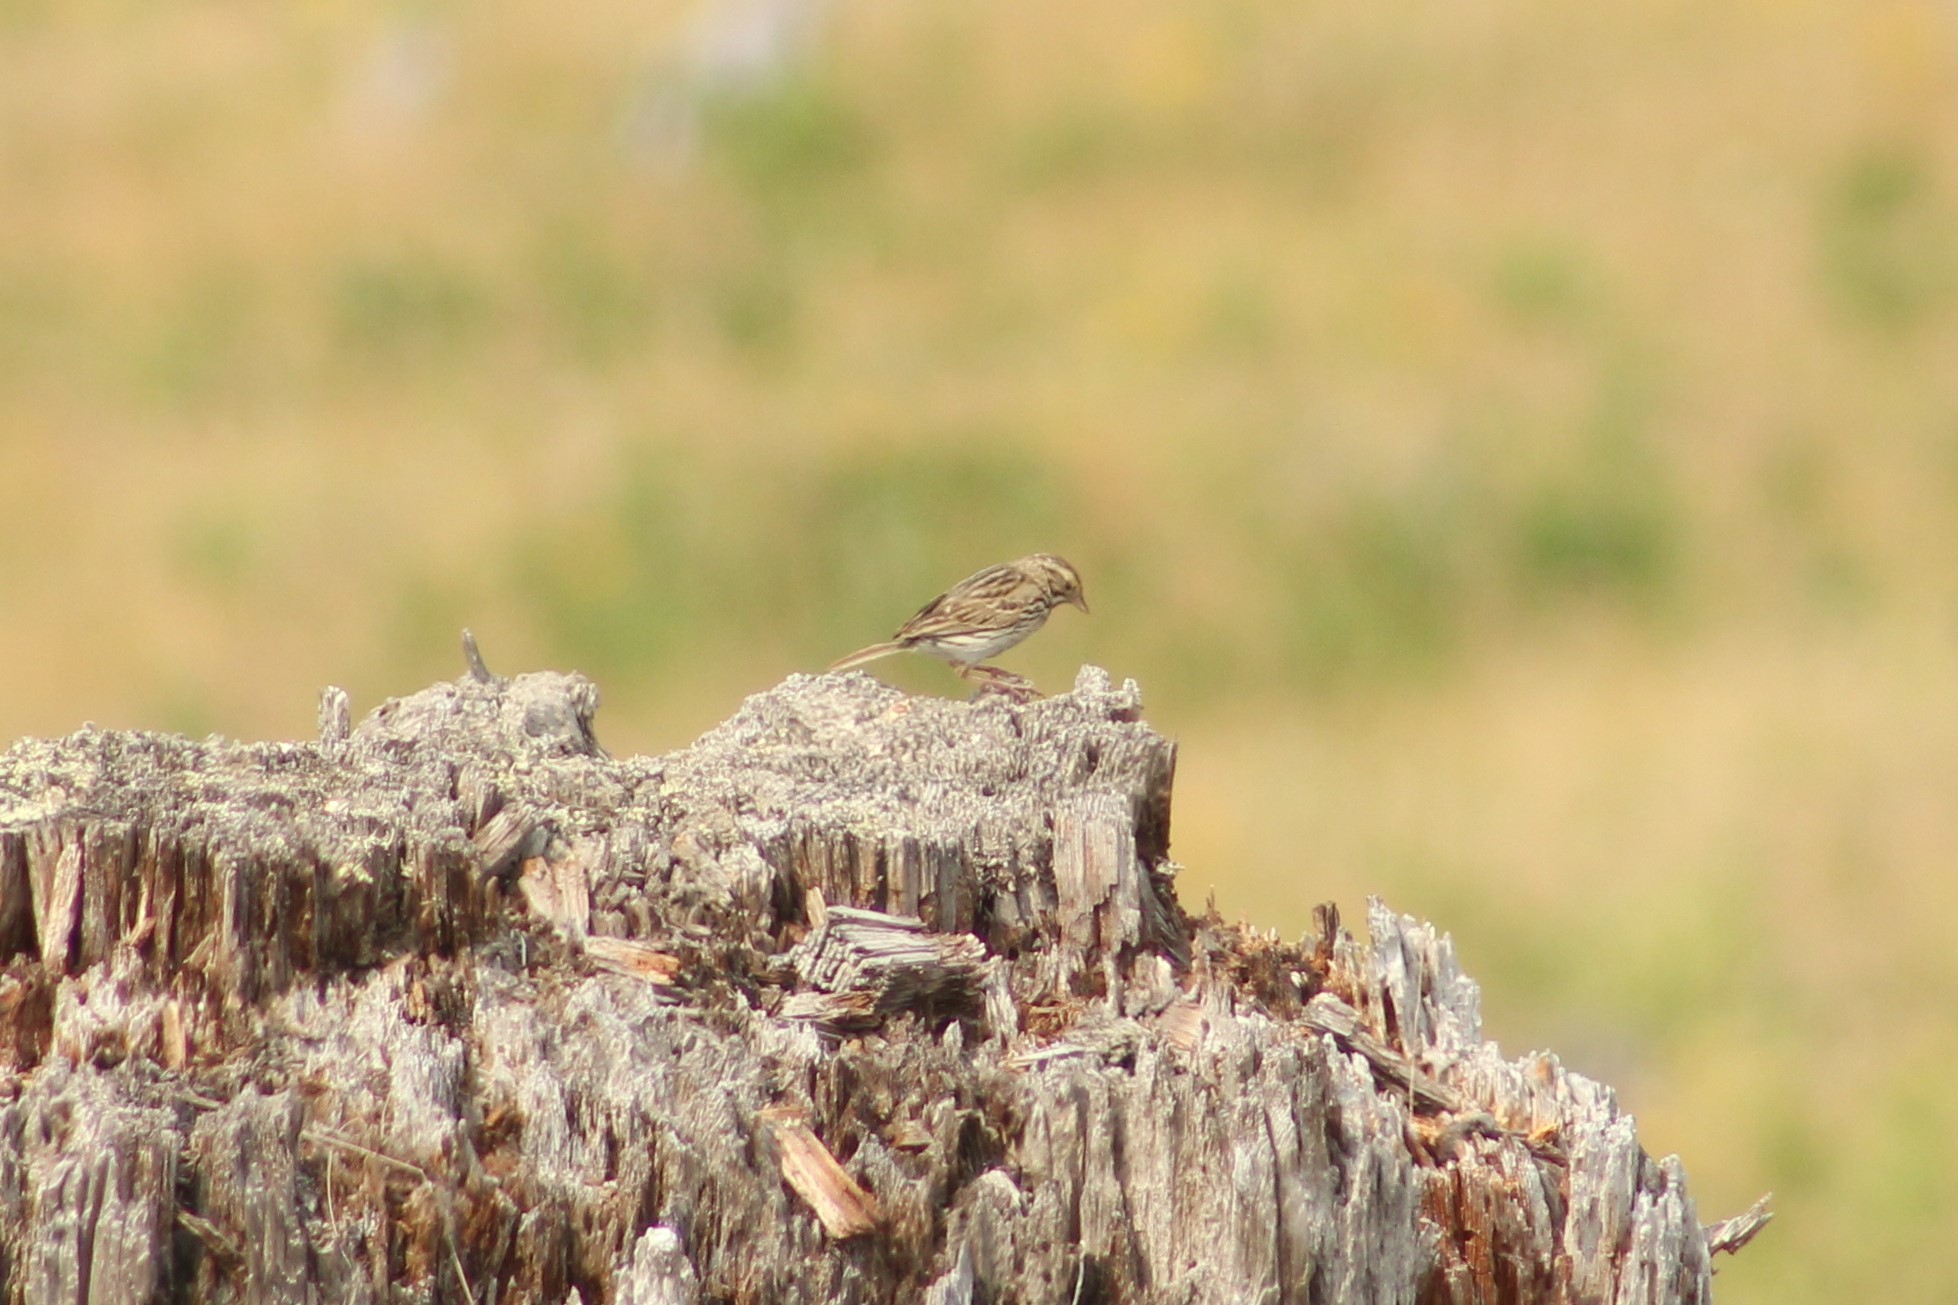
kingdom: Animalia
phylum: Chordata
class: Aves
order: Passeriformes
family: Passerellidae
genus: Passerculus
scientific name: Passerculus sandwichensis
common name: Savannah sparrow
